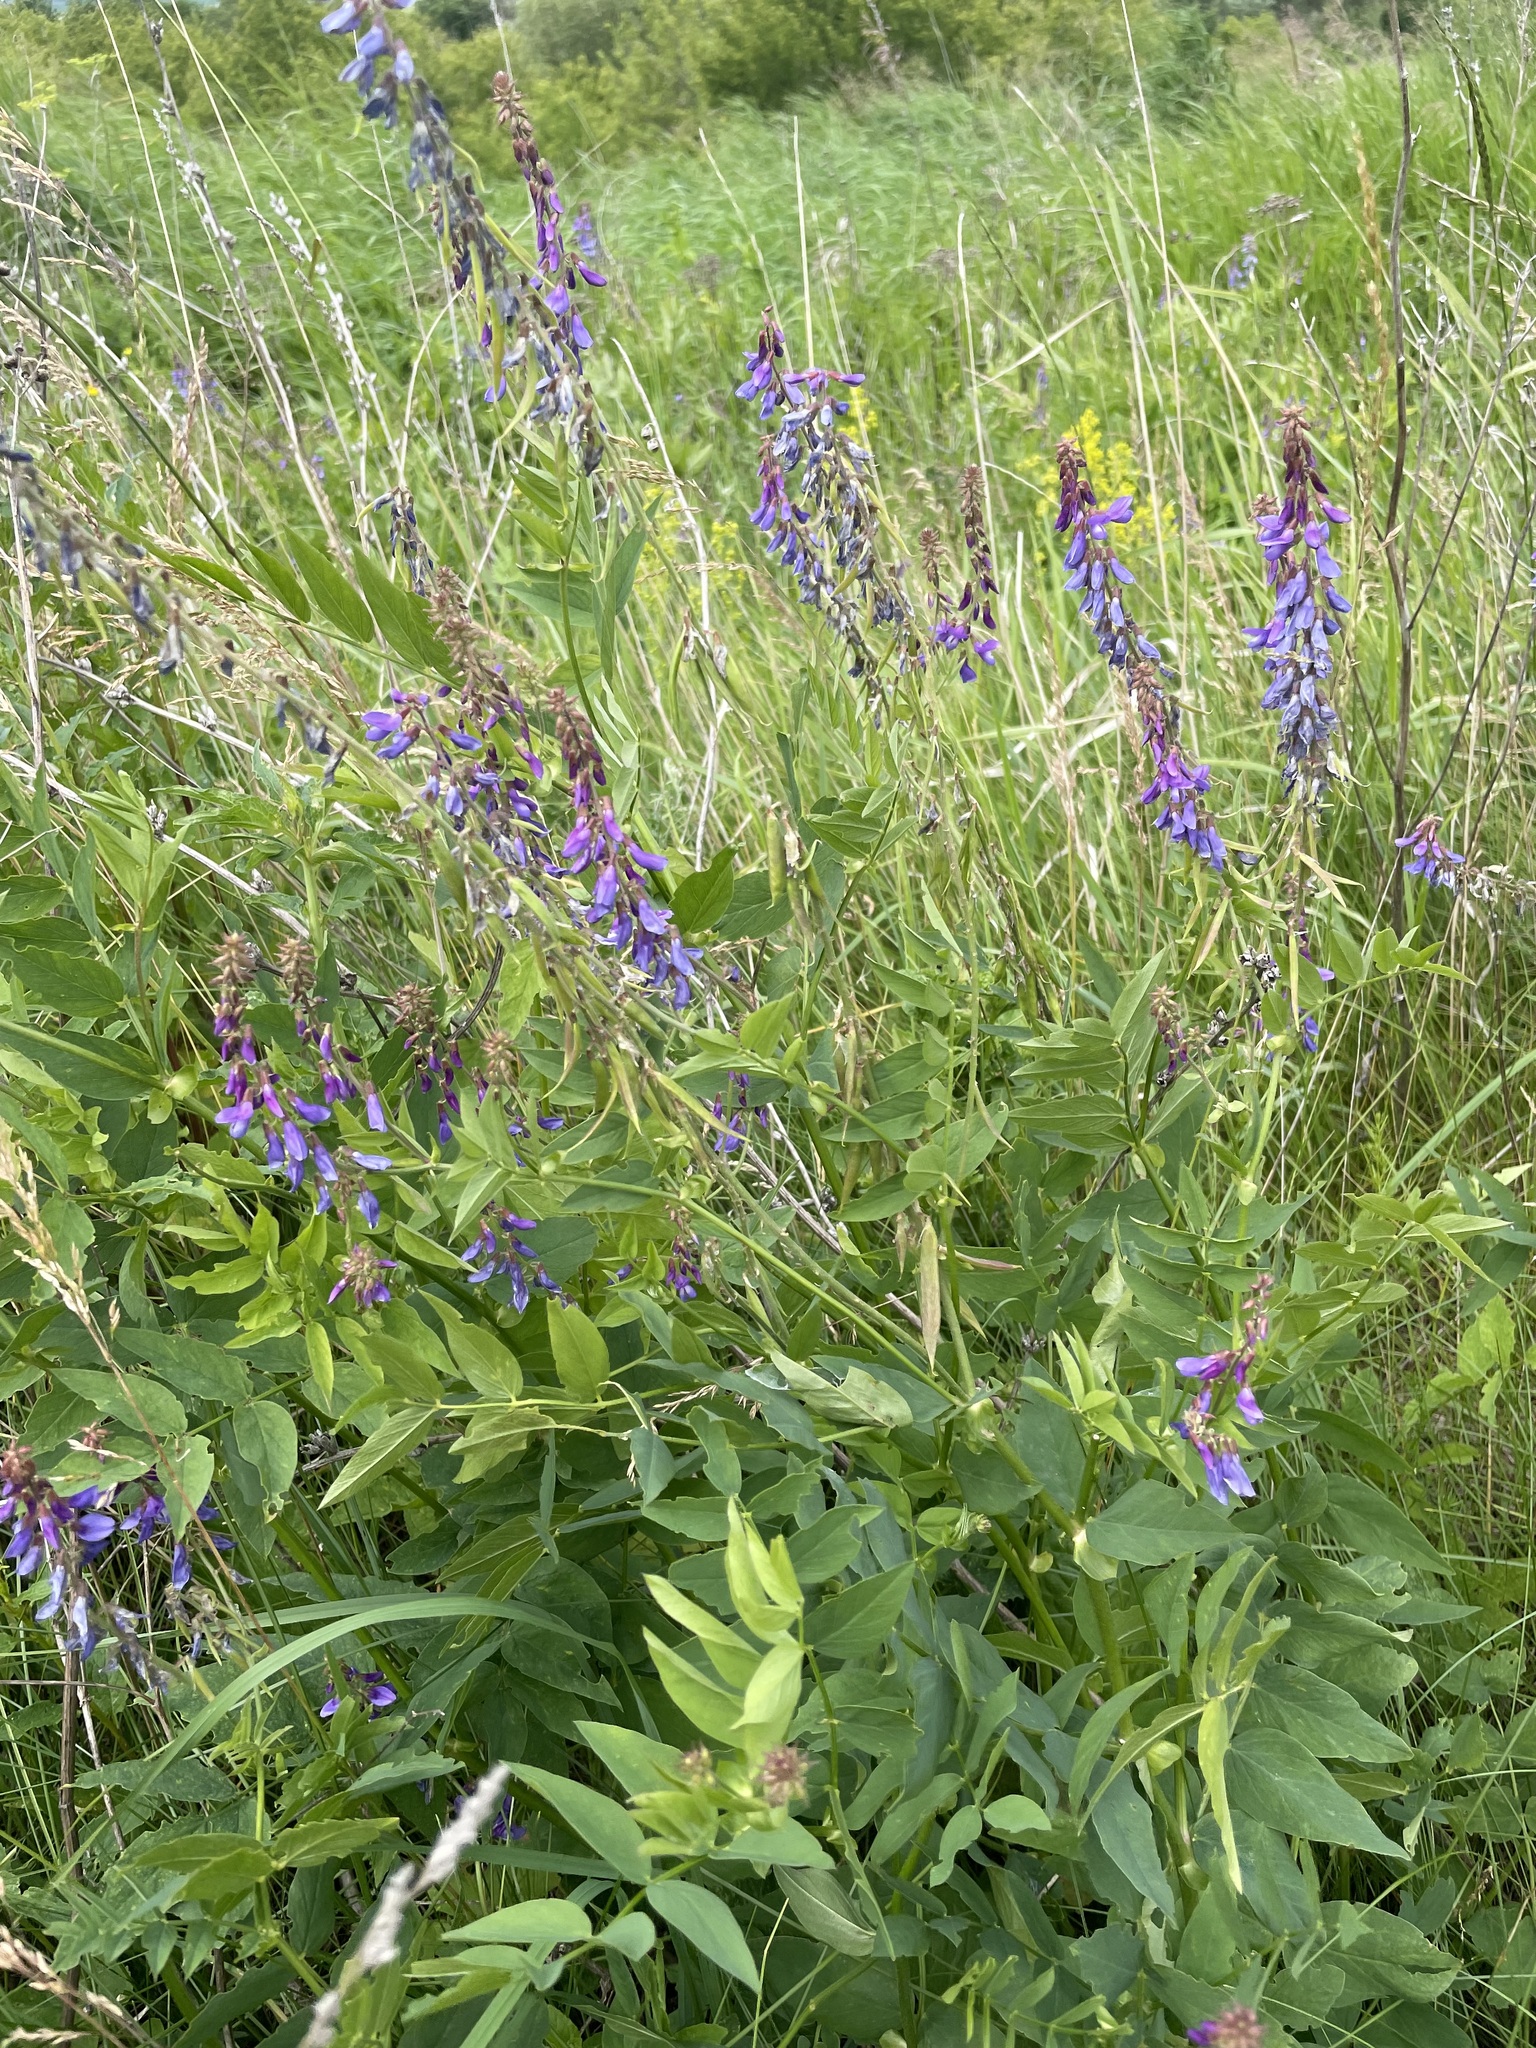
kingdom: Plantae
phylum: Tracheophyta
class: Magnoliopsida
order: Fabales
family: Fabaceae
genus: Galega
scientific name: Galega orientalis
